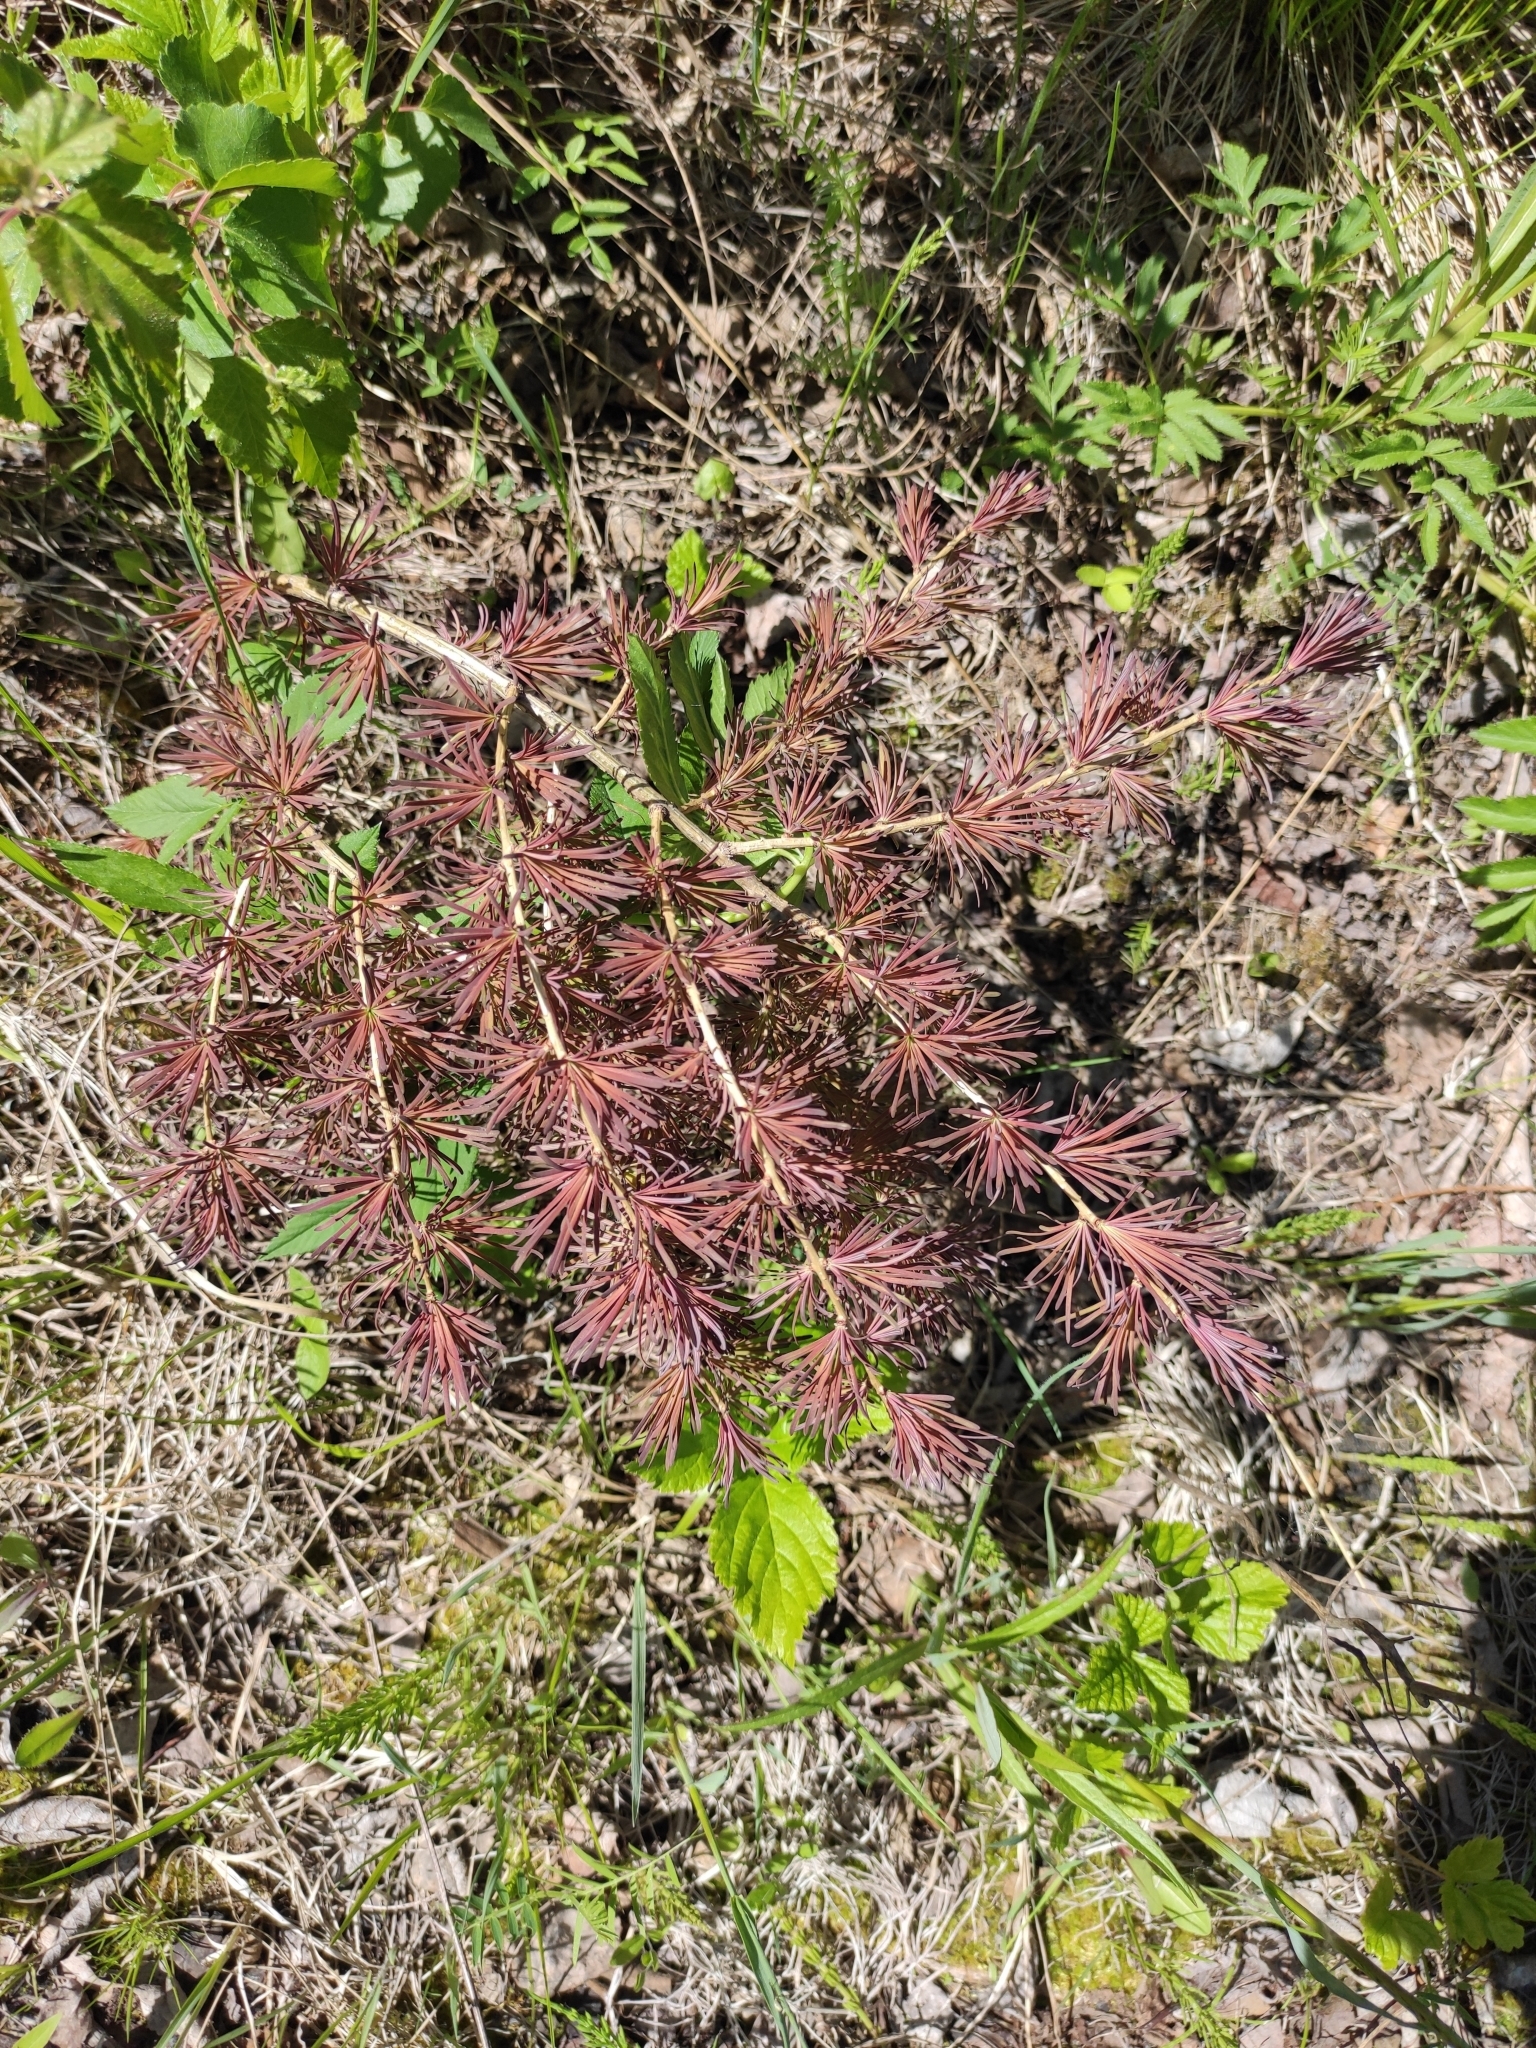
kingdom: Plantae
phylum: Tracheophyta
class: Pinopsida
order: Pinales
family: Pinaceae
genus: Larix
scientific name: Larix sibirica
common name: Siberian larch
